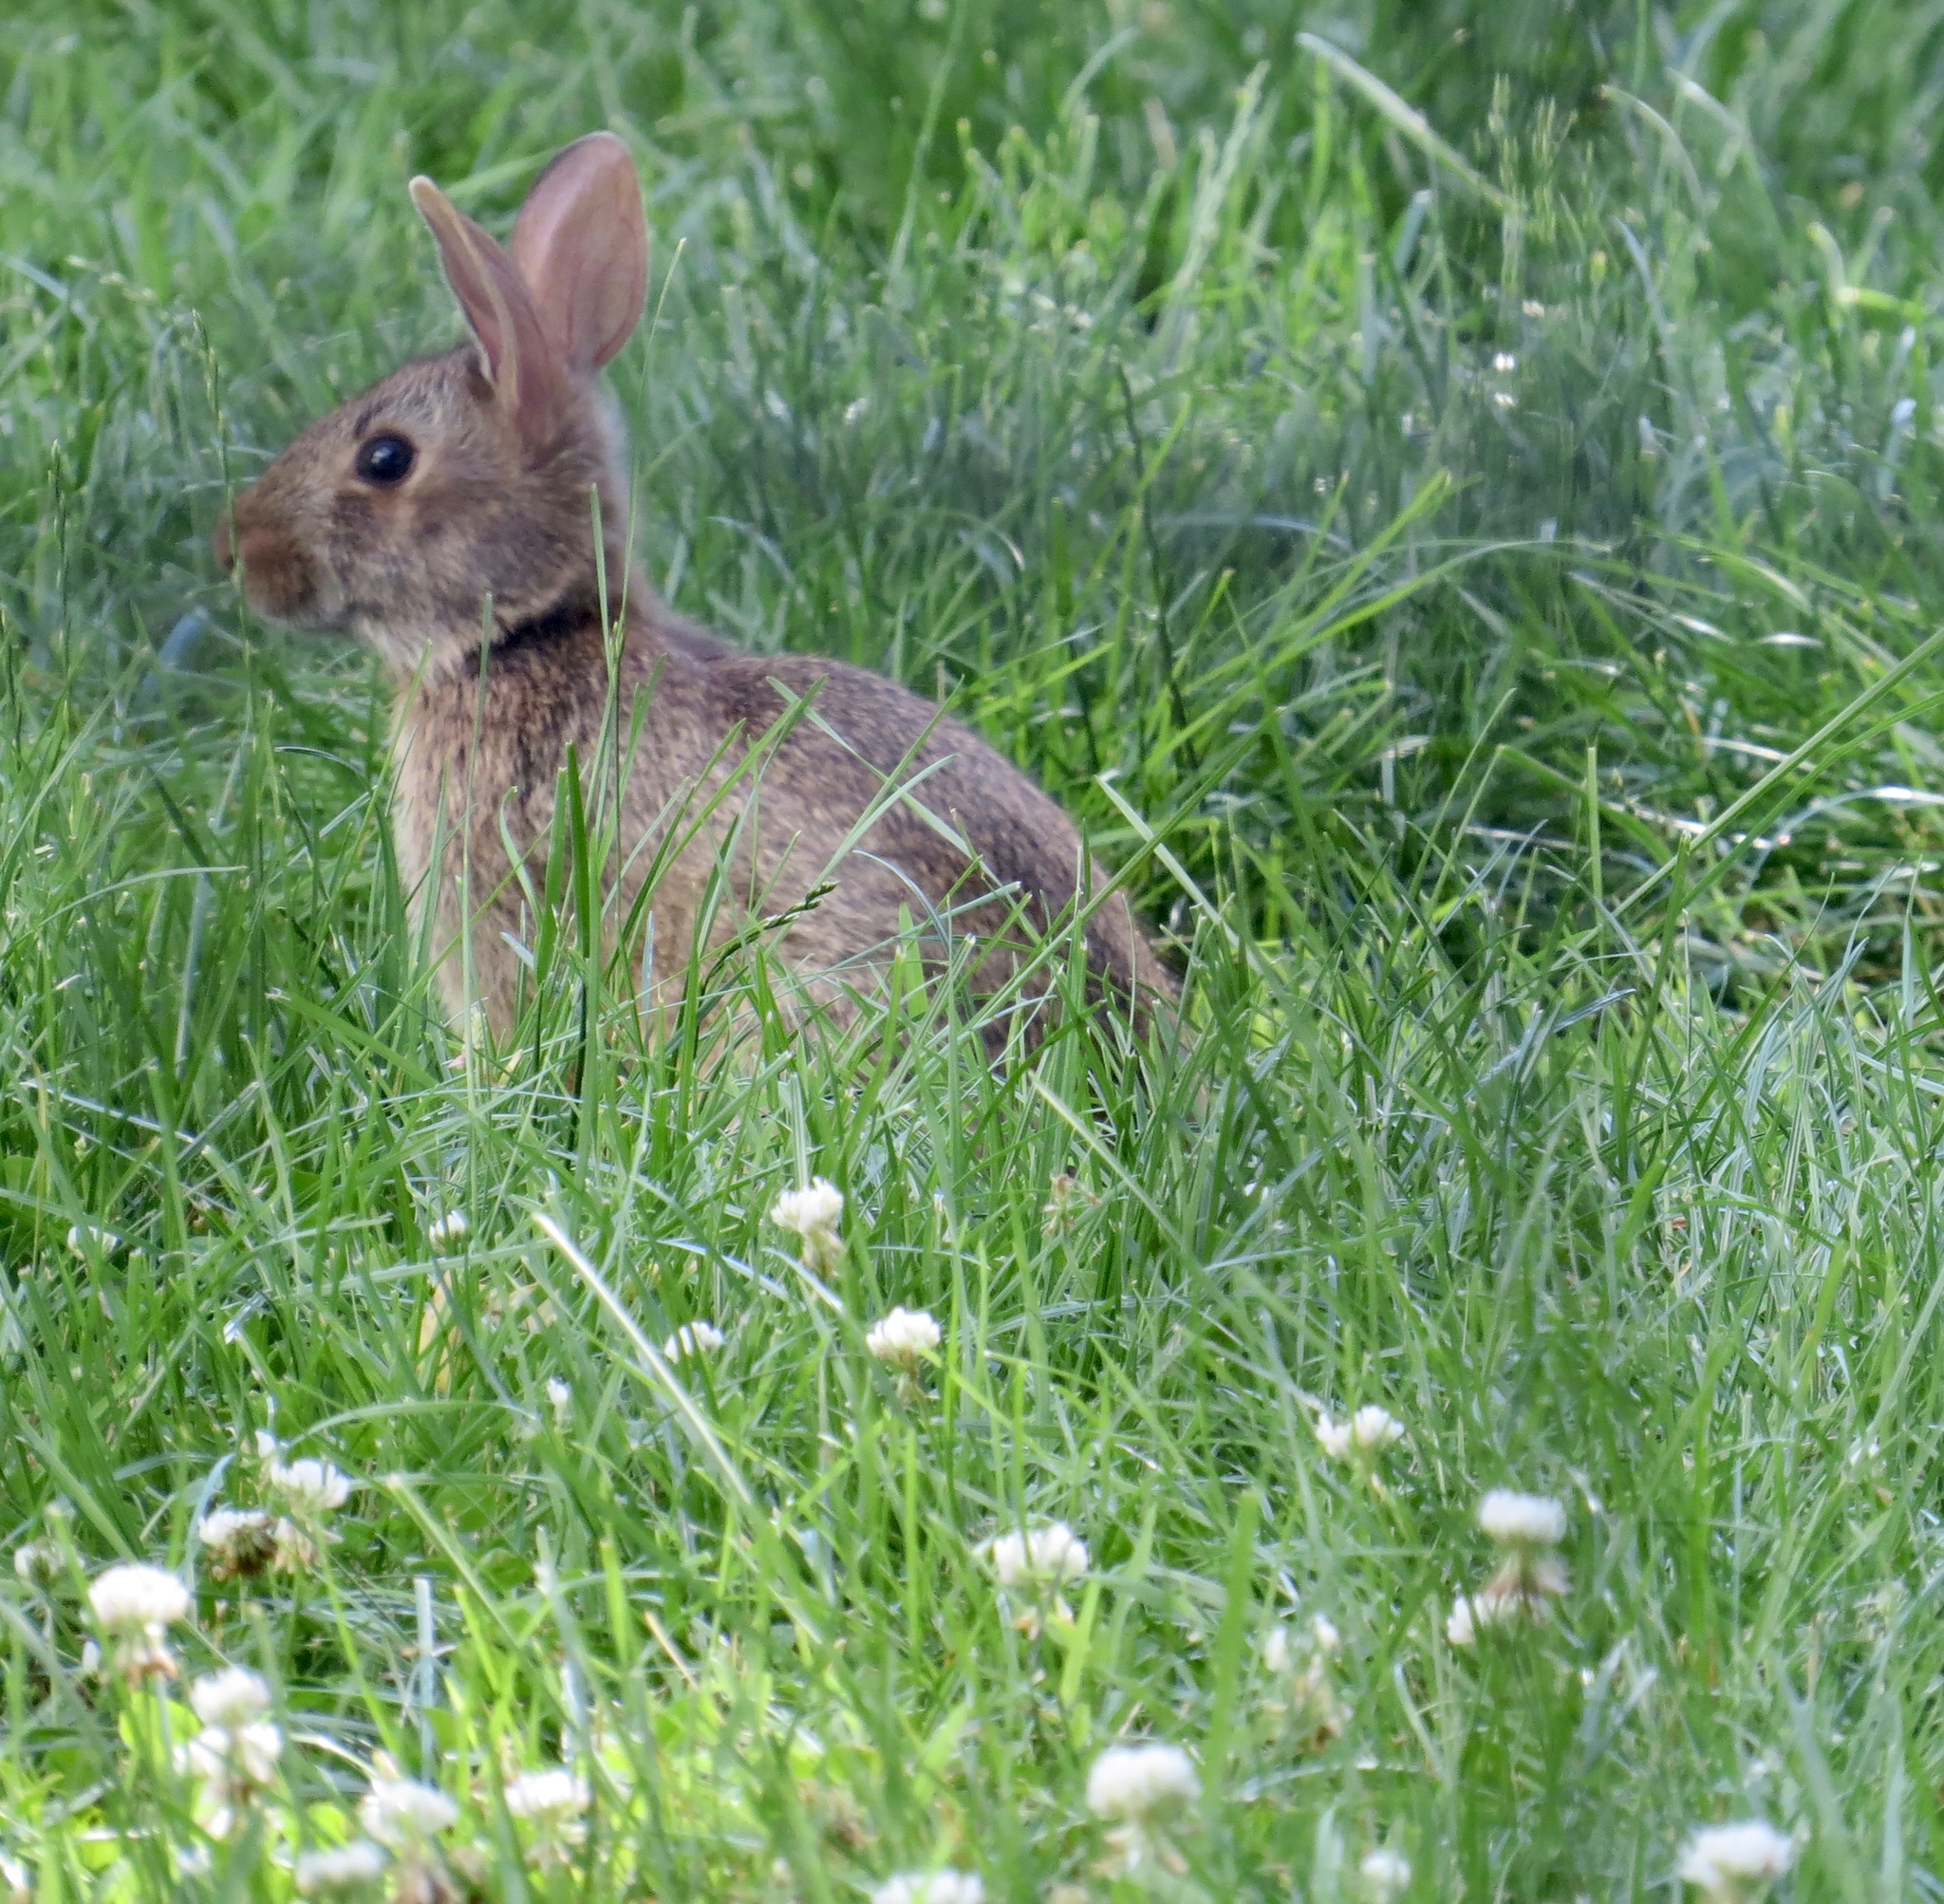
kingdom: Animalia
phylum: Chordata
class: Mammalia
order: Lagomorpha
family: Leporidae
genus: Sylvilagus
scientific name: Sylvilagus floridanus
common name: Eastern cottontail
